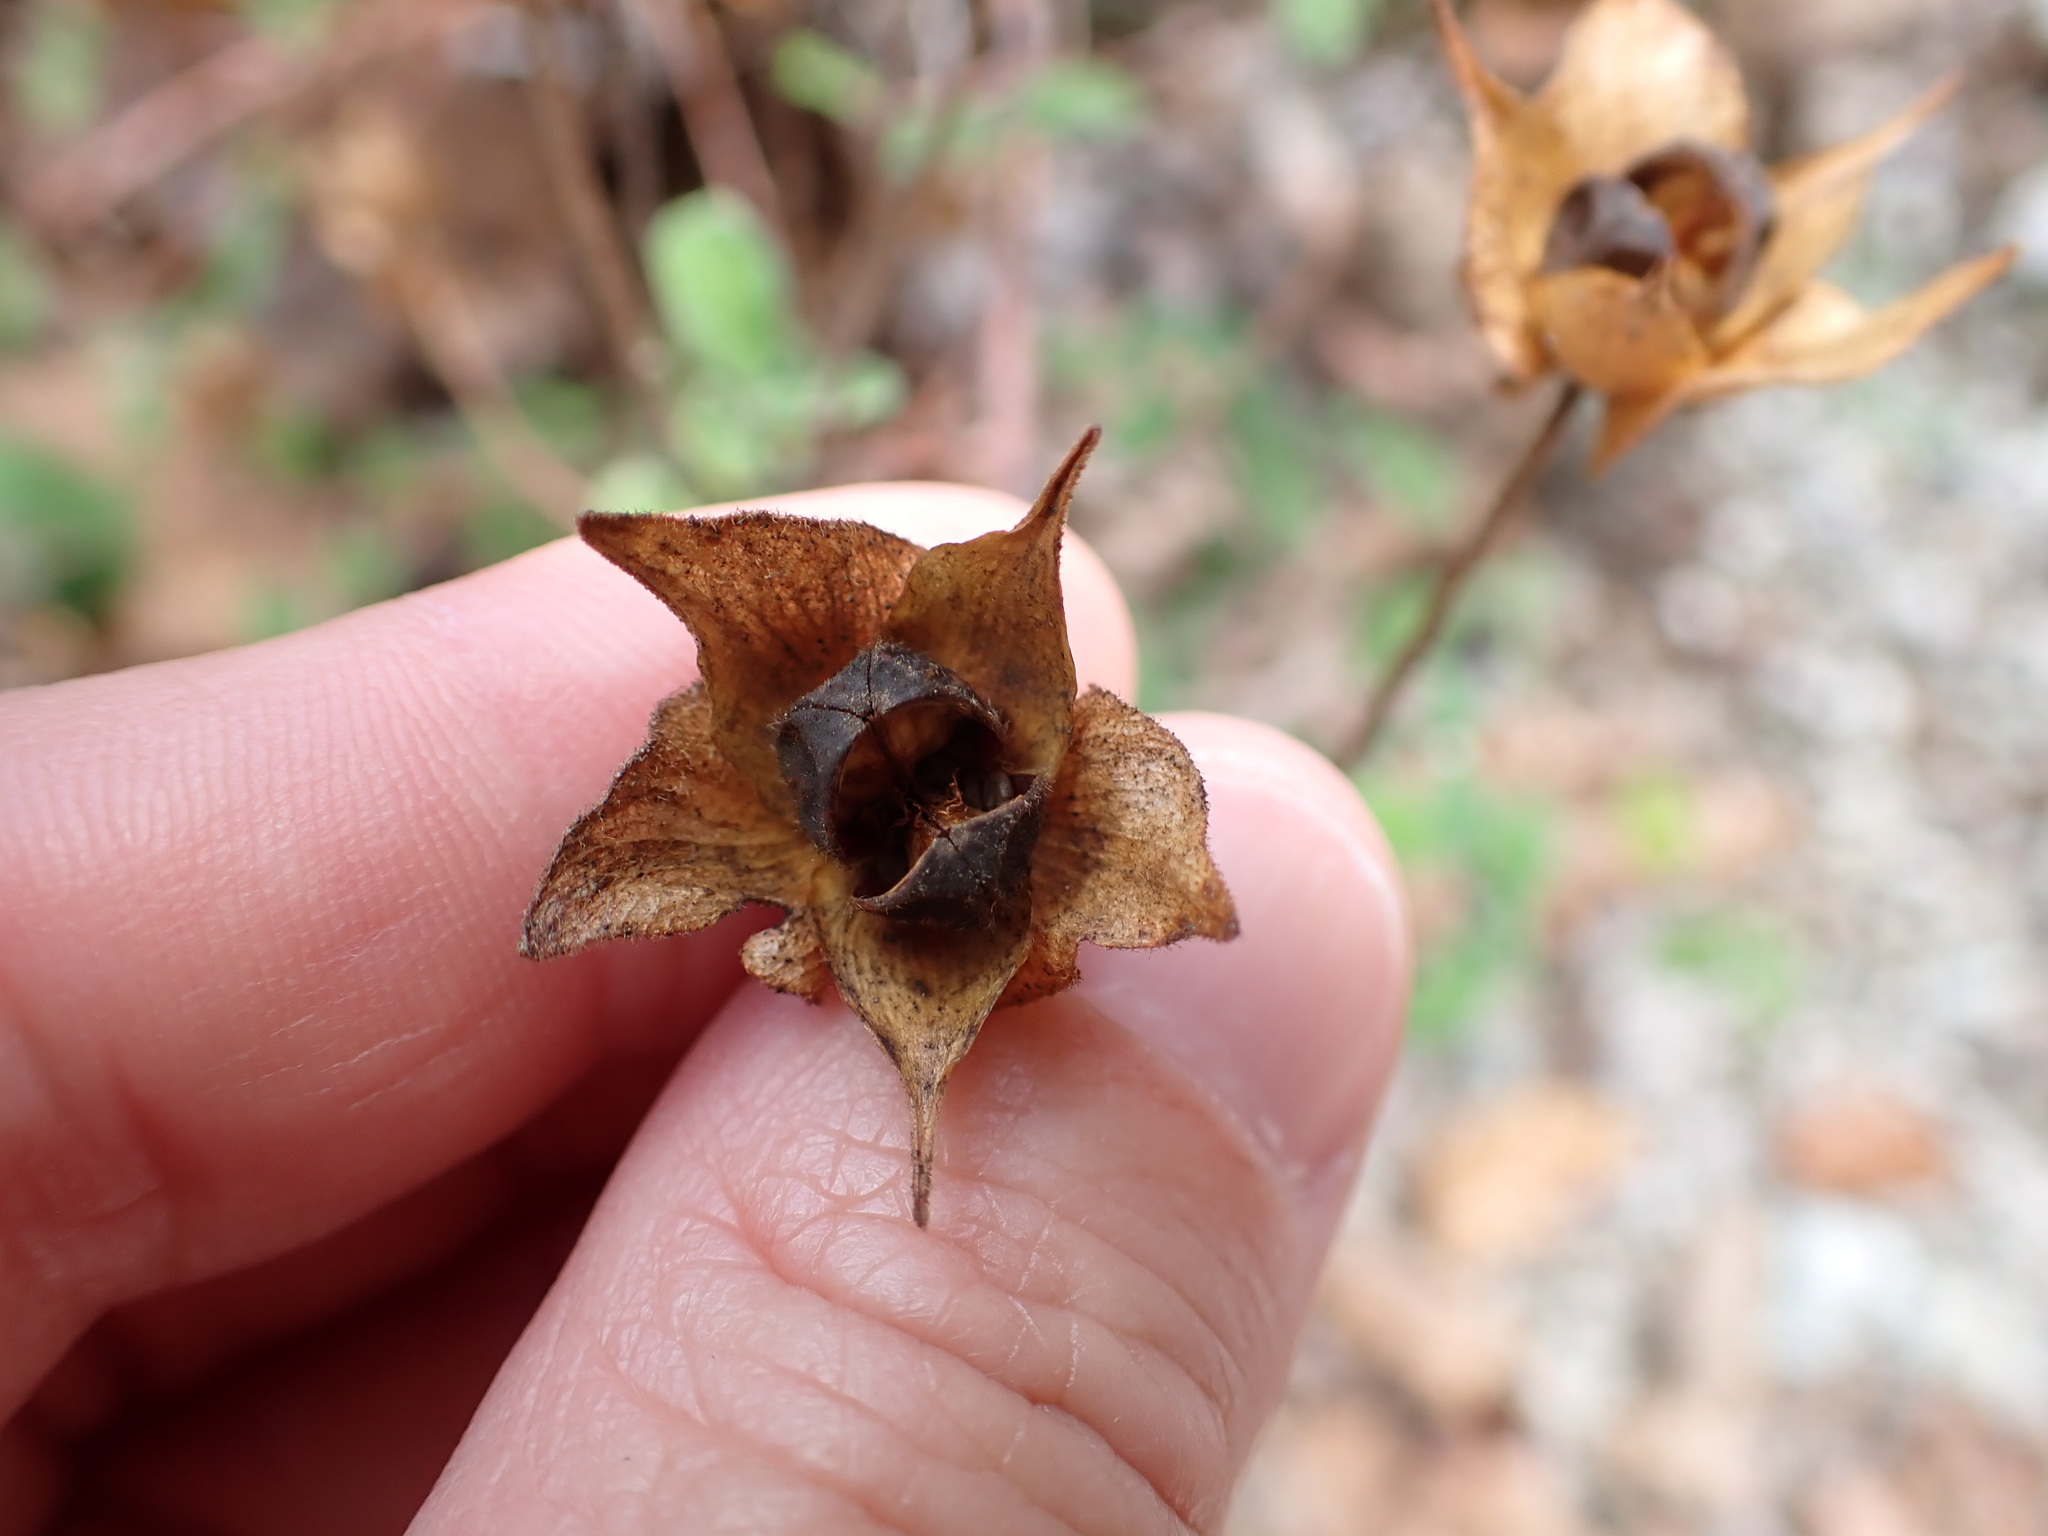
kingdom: Plantae
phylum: Tracheophyta
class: Magnoliopsida
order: Malvales
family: Cistaceae
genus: Cistus
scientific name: Cistus salviifolius
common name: Salvia cistus
